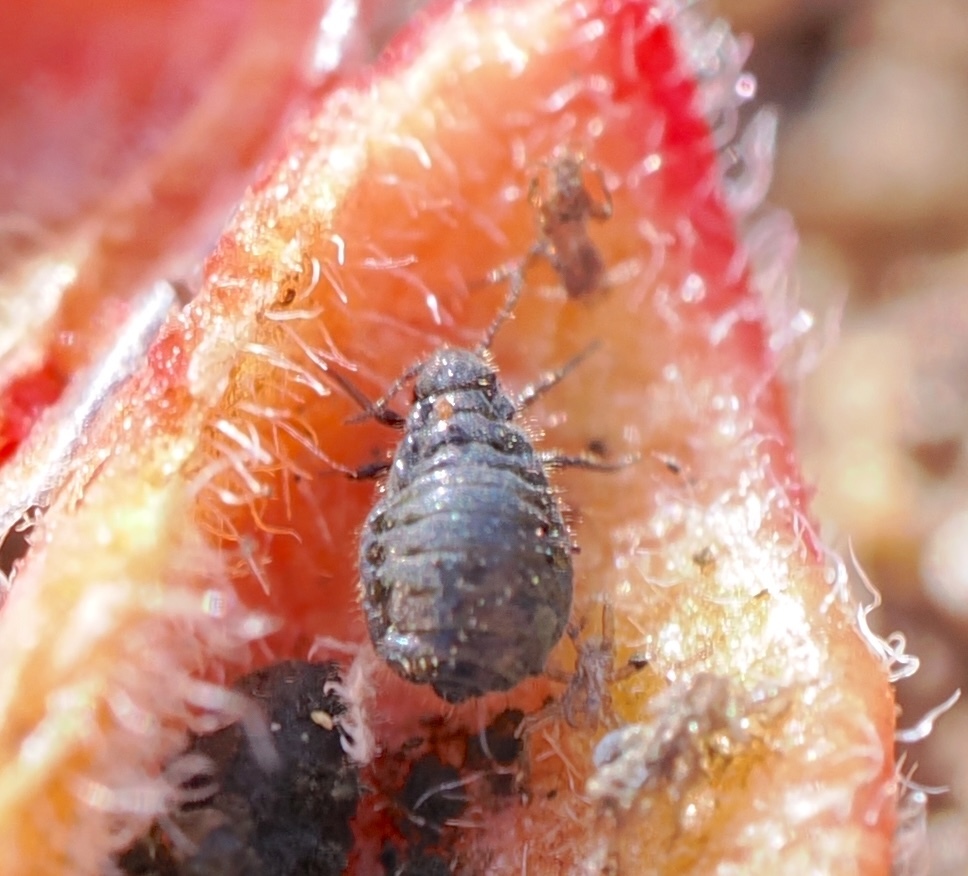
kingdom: Animalia
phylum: Arthropoda
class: Insecta
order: Hemiptera
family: Aphididae
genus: Tamalia
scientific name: Tamalia inquilina
